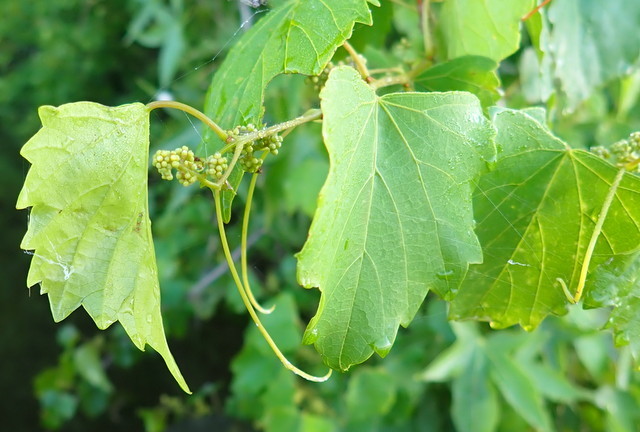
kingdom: Plantae
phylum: Tracheophyta
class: Magnoliopsida
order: Vitales
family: Vitaceae
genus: Vitis
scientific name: Vitis rotundifolia
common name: Muscadine grape
